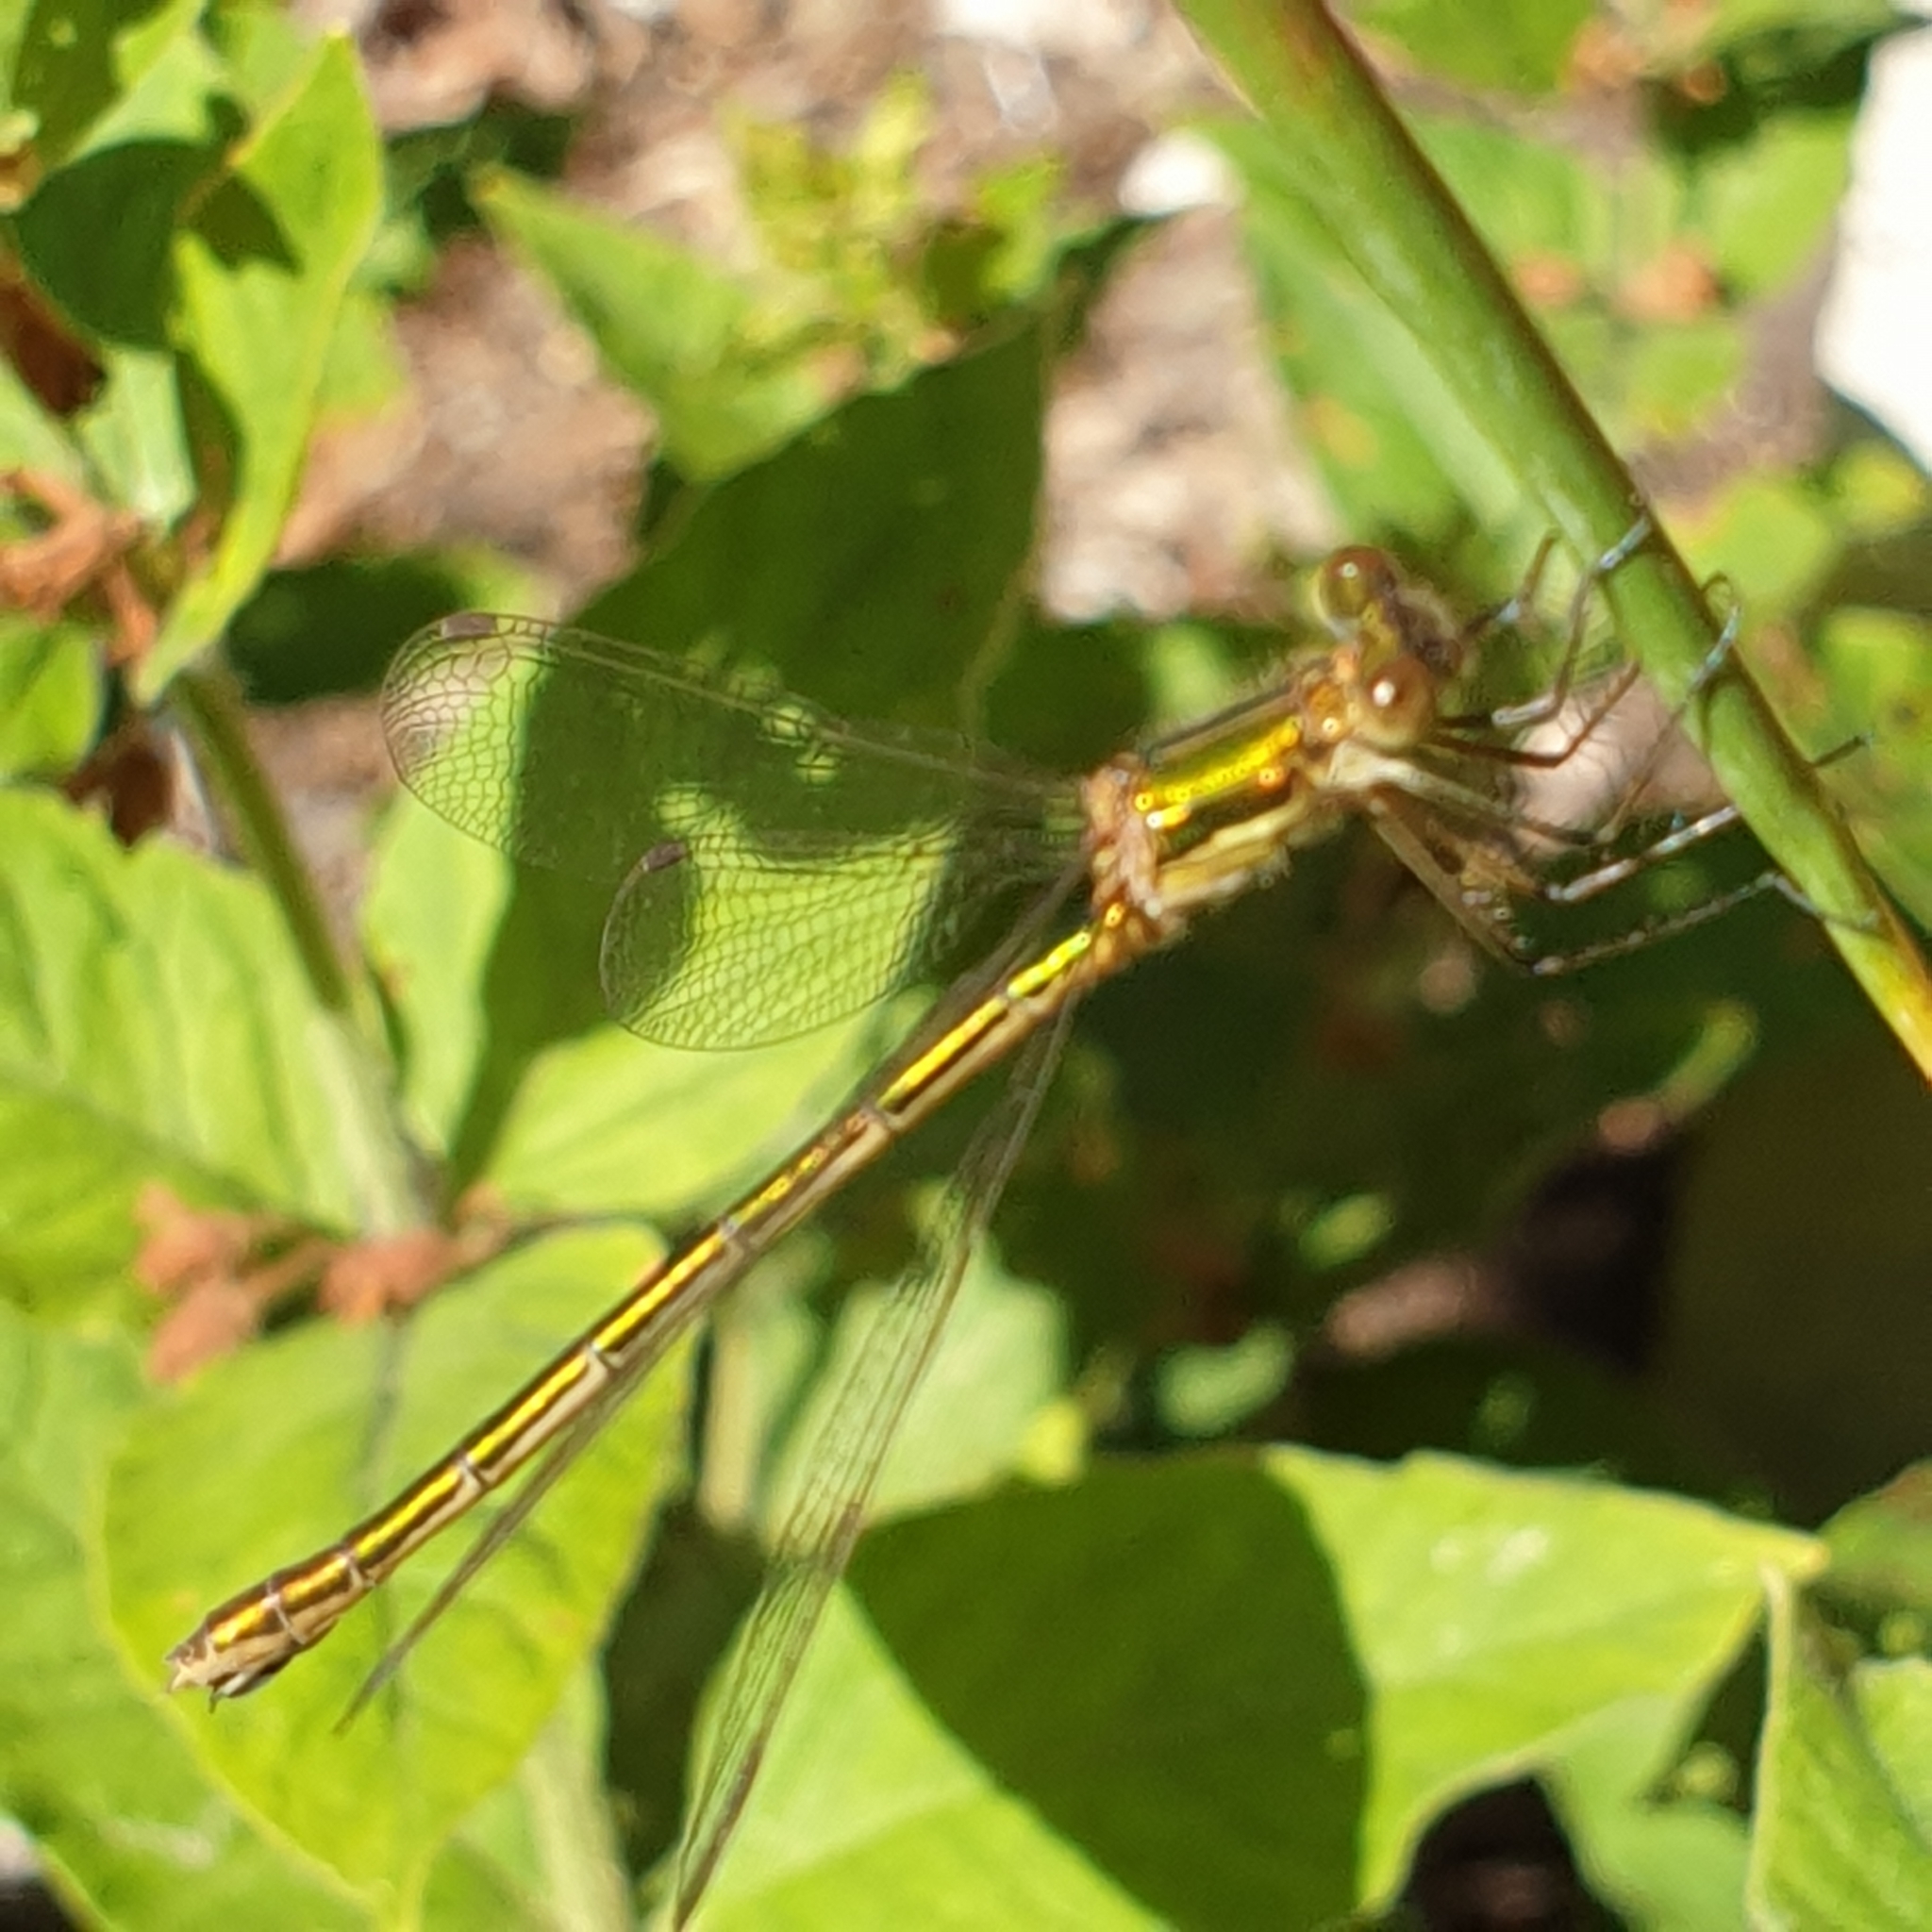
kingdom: Animalia
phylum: Arthropoda
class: Insecta
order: Odonata
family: Lestidae
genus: Lestes
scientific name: Lestes sponsa
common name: Common spreadwing
